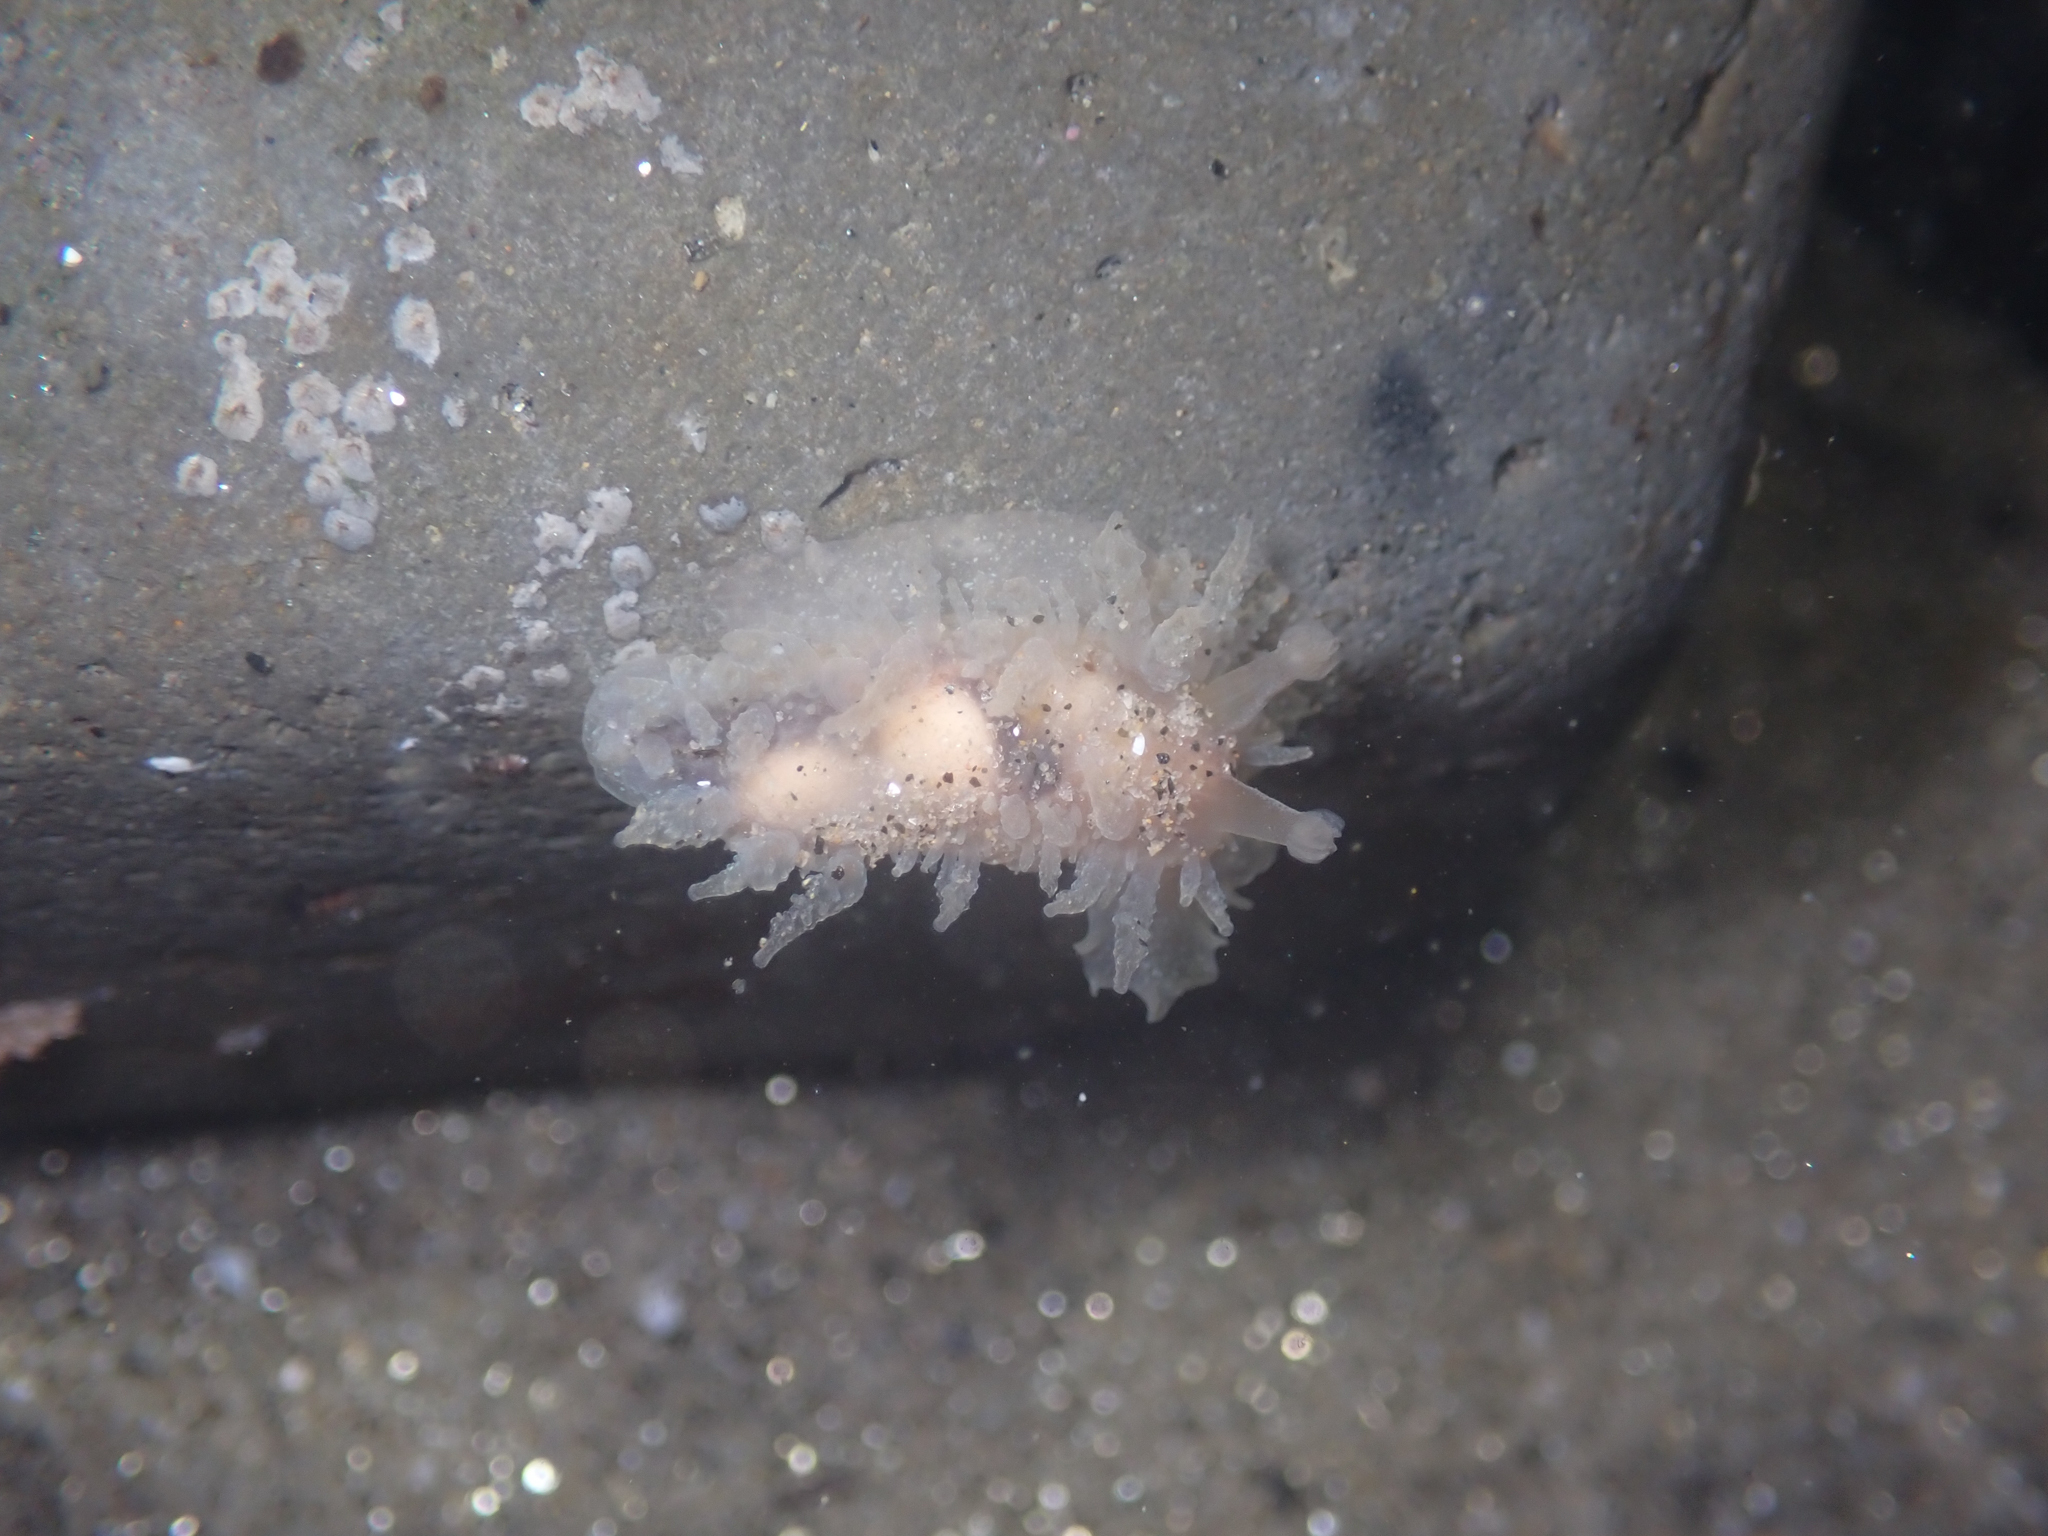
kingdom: Animalia
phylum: Mollusca
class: Gastropoda
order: Nudibranchia
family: Dironidae
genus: Dirona
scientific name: Dirona picta
